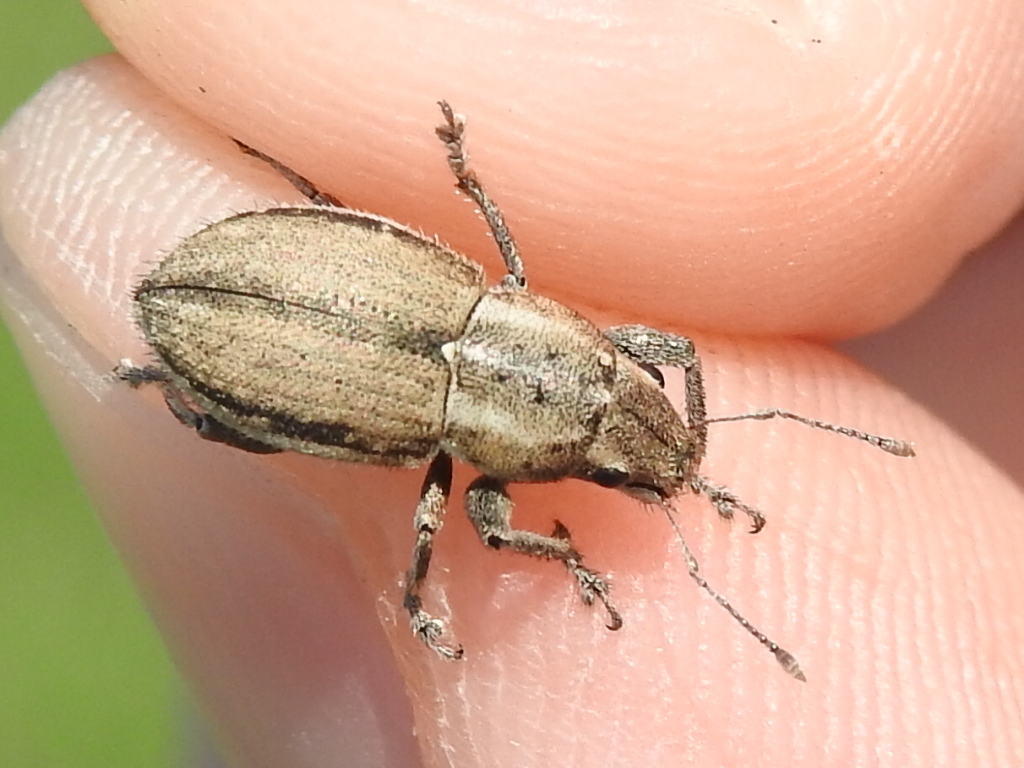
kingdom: Animalia
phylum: Arthropoda
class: Insecta
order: Coleoptera
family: Curculionidae
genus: Naupactus
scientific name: Naupactus peregrinus
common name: Whitefringed beetle
